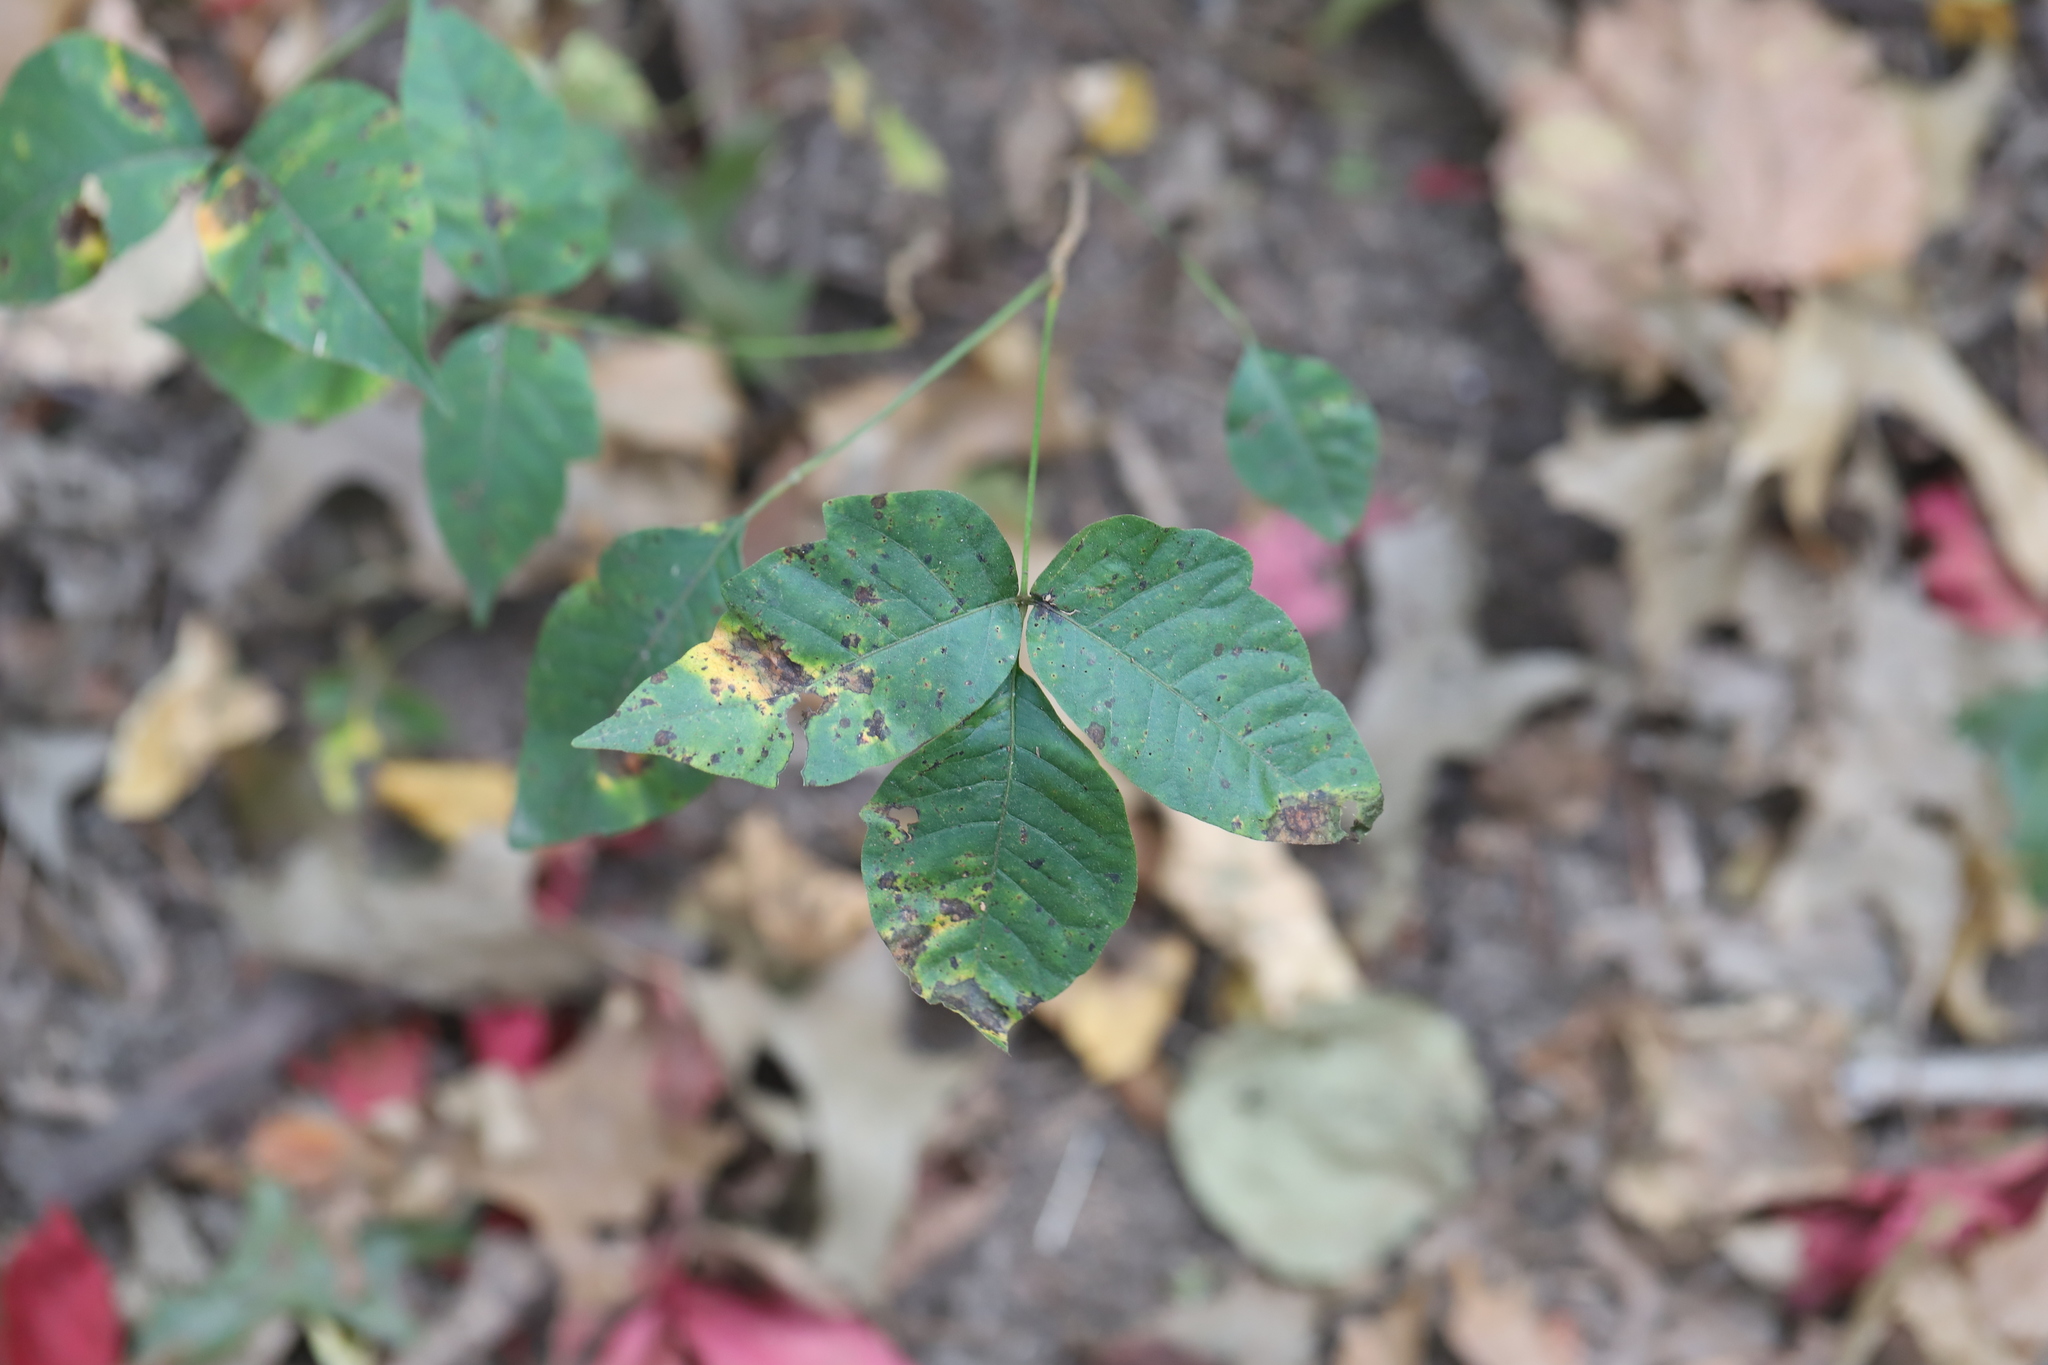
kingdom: Plantae
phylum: Tracheophyta
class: Magnoliopsida
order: Sapindales
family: Anacardiaceae
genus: Toxicodendron
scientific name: Toxicodendron radicans
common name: Poison ivy
